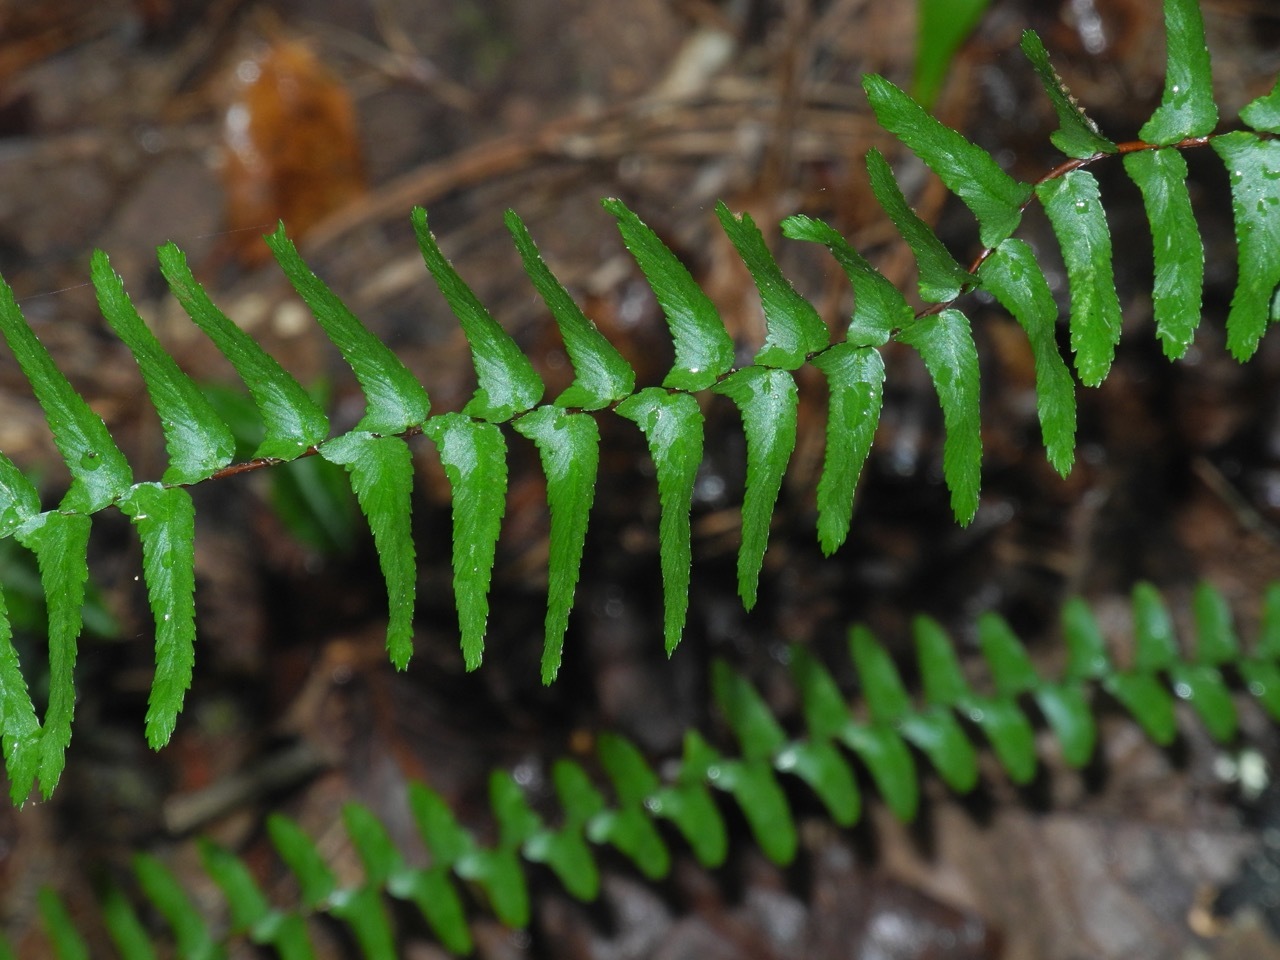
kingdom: Plantae
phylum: Tracheophyta
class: Polypodiopsida
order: Polypodiales
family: Aspleniaceae
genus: Asplenium
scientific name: Asplenium platyneuron
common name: Ebony spleenwort
